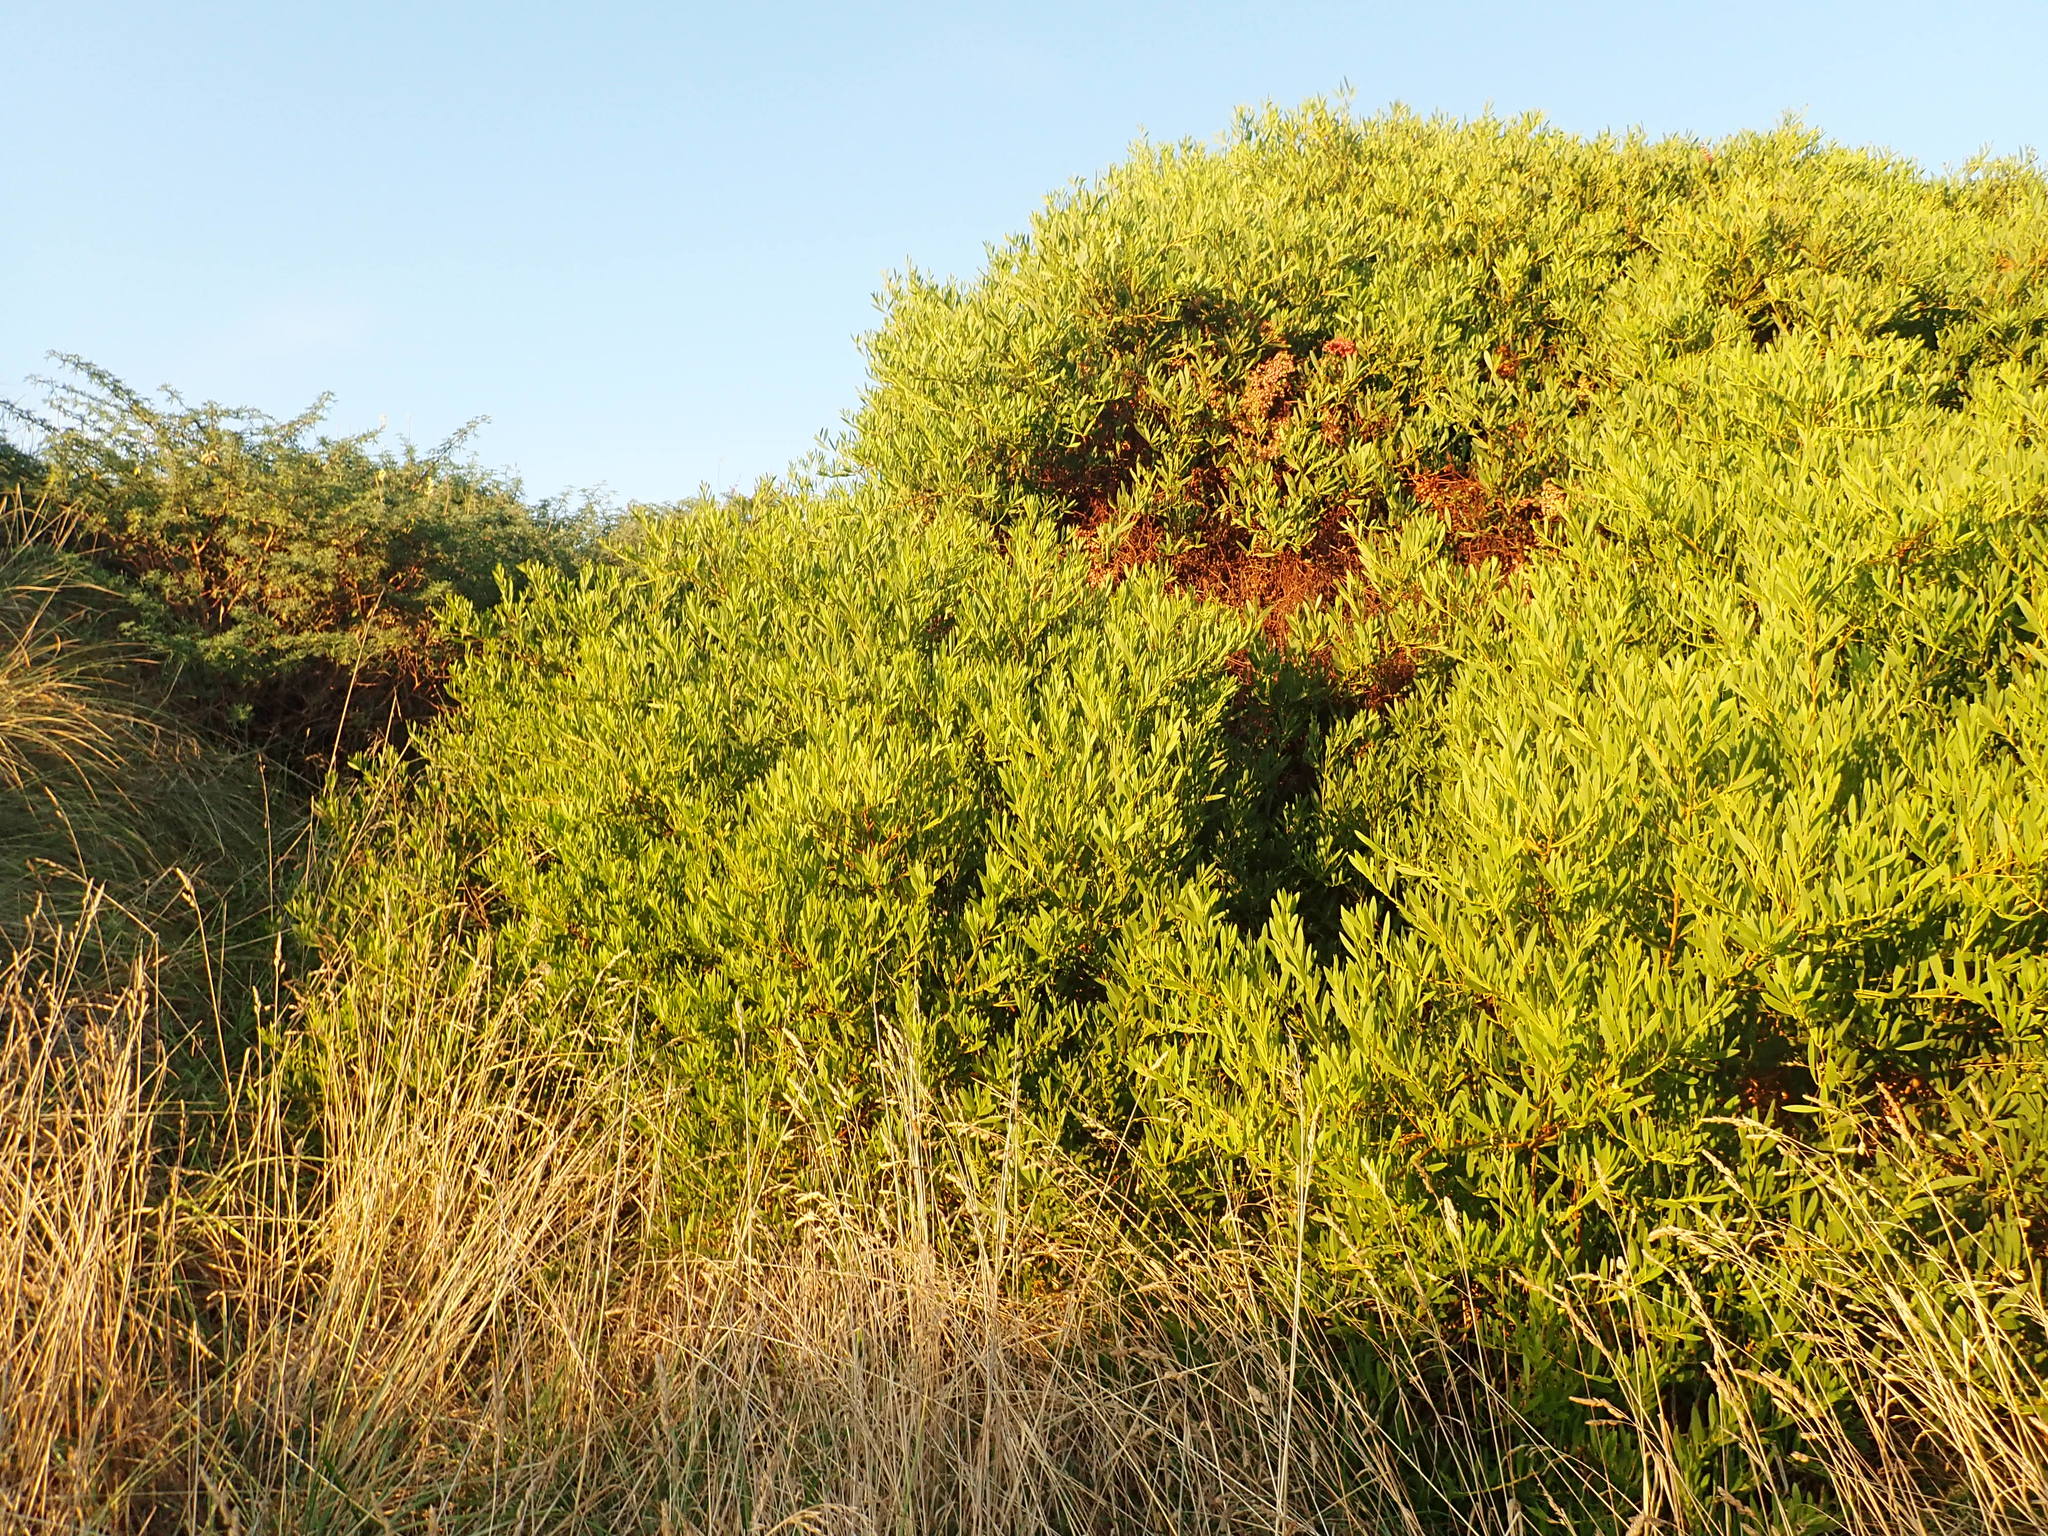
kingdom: Plantae
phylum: Tracheophyta
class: Magnoliopsida
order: Caryophyllales
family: Polygonaceae
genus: Rumex
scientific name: Rumex sagittatus
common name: Climbing dock
